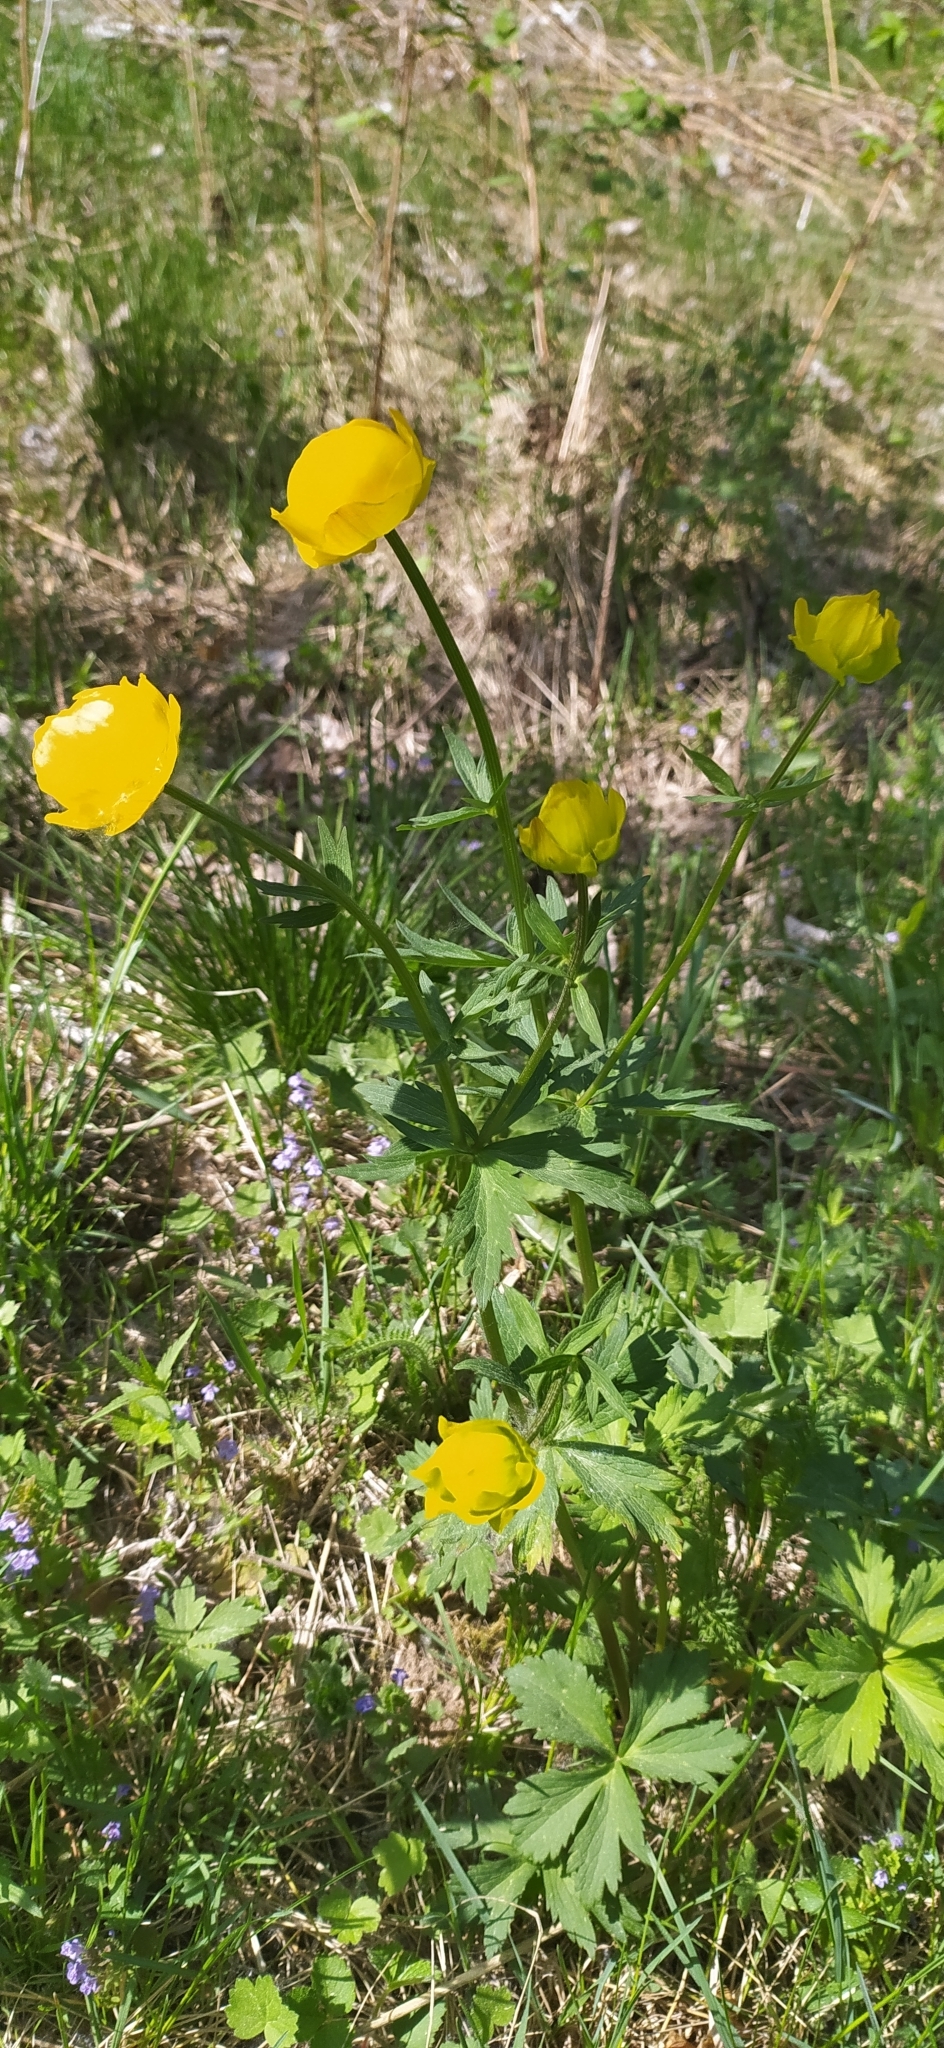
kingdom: Plantae
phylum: Tracheophyta
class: Magnoliopsida
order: Ranunculales
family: Ranunculaceae
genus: Trollius
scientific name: Trollius europaeus
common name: European globeflower
